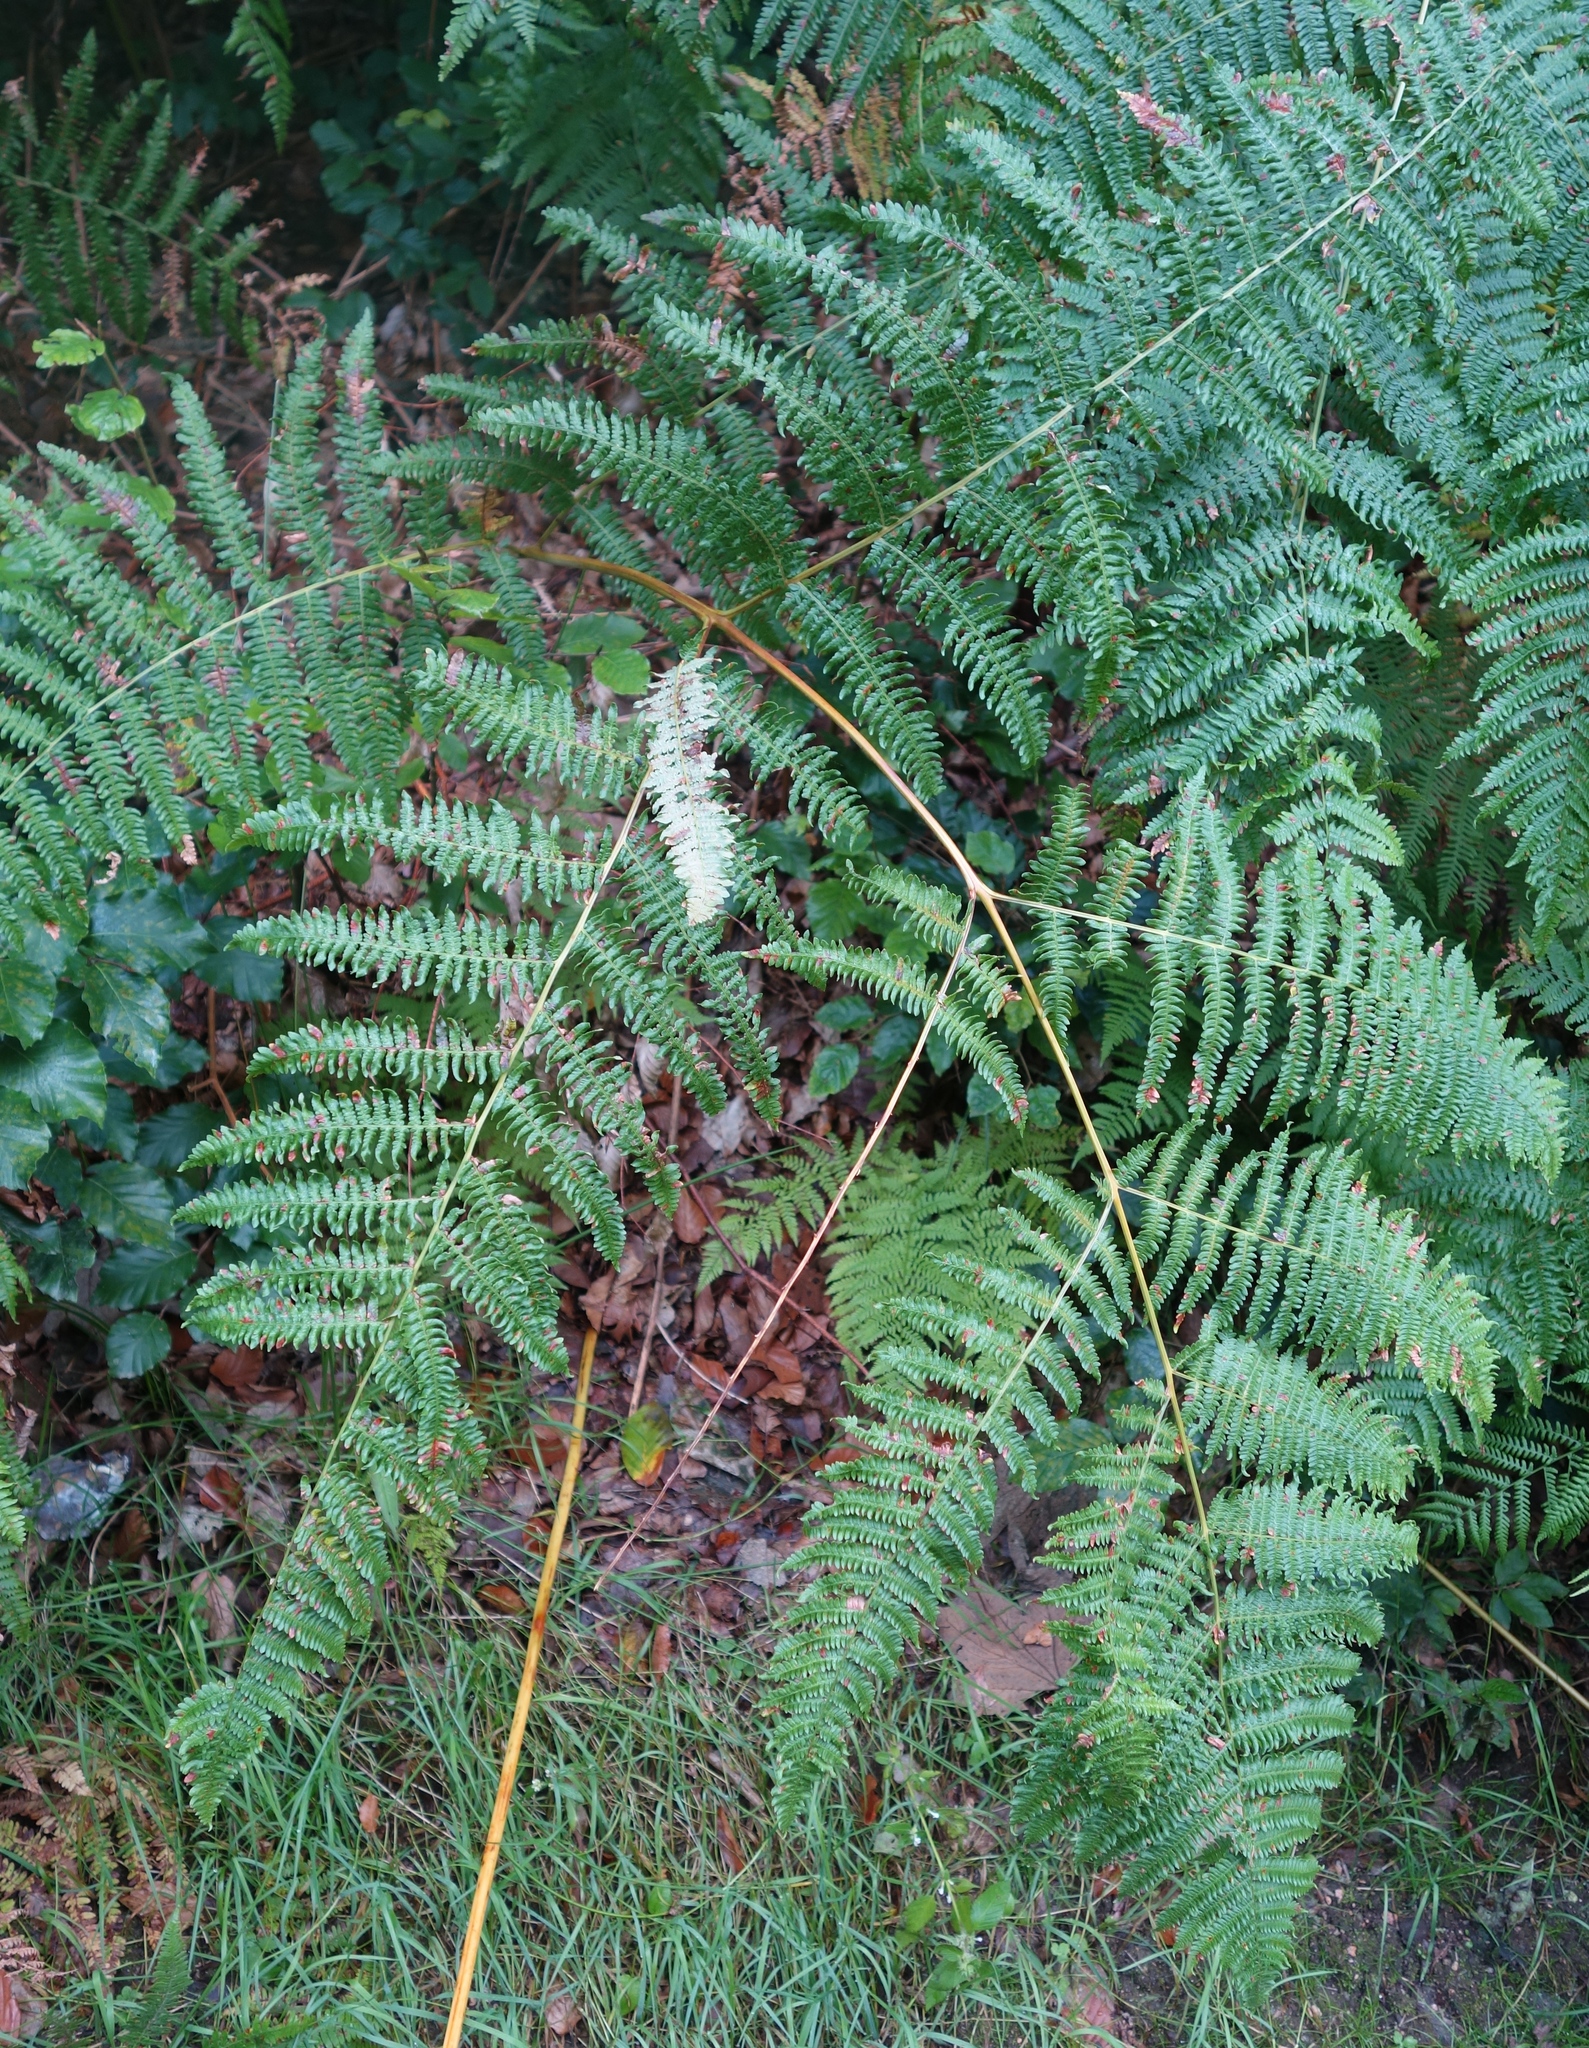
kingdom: Plantae
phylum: Tracheophyta
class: Polypodiopsida
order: Polypodiales
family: Dennstaedtiaceae
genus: Pteridium
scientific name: Pteridium aquilinum
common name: Bracken
